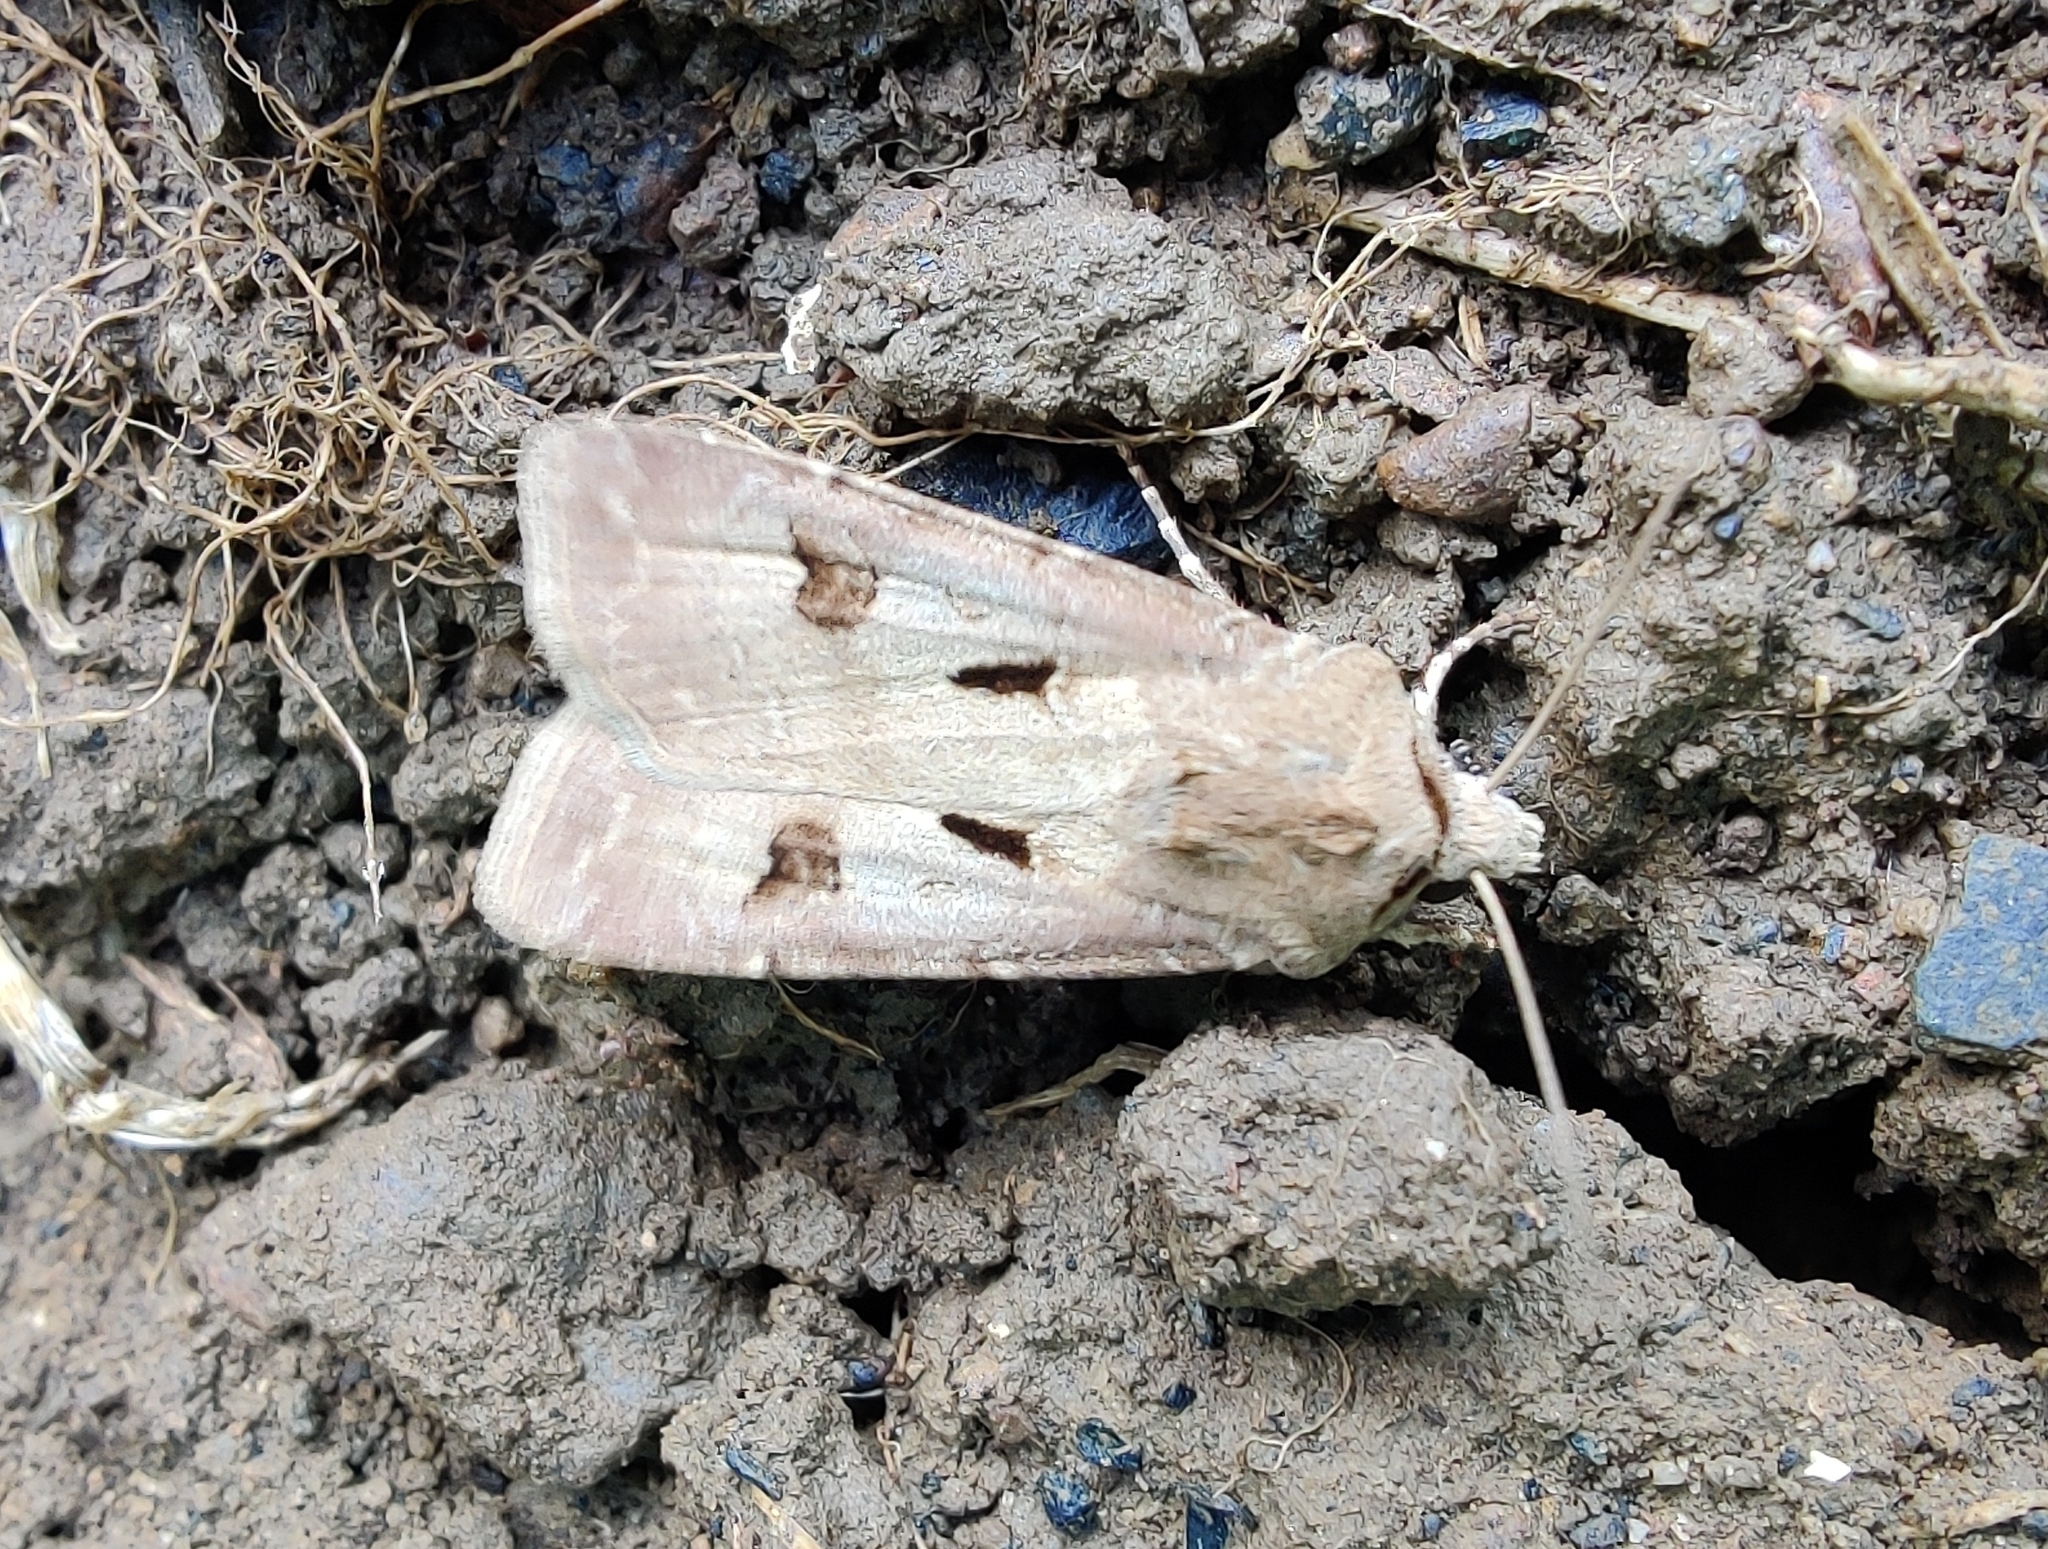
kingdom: Animalia
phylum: Arthropoda
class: Insecta
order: Lepidoptera
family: Noctuidae
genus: Agrotis
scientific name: Agrotis exclamationis
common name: Heart and dart
